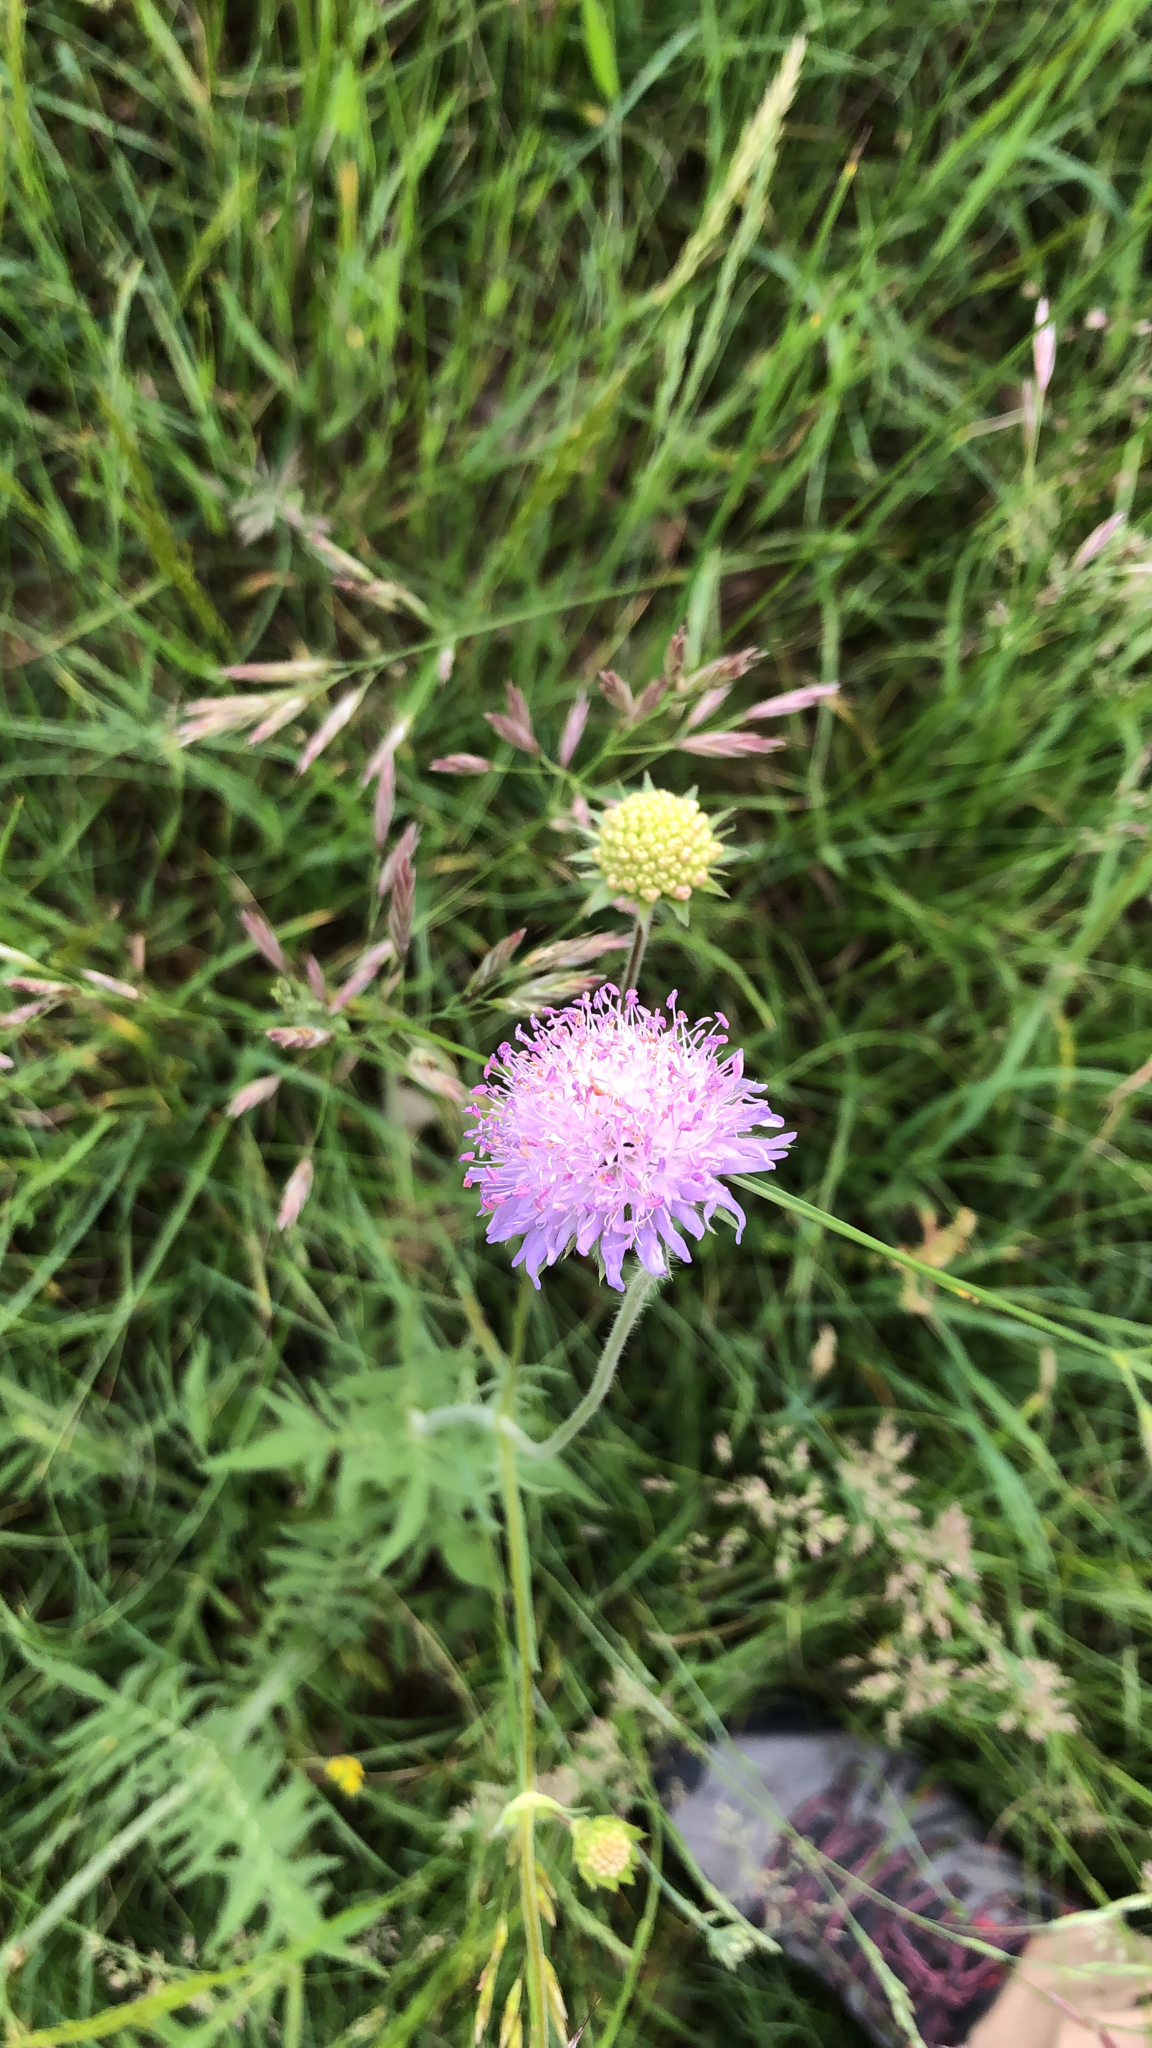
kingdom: Plantae
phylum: Tracheophyta
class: Magnoliopsida
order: Dipsacales
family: Caprifoliaceae
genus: Knautia
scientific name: Knautia arvensis
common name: Field scabiosa
